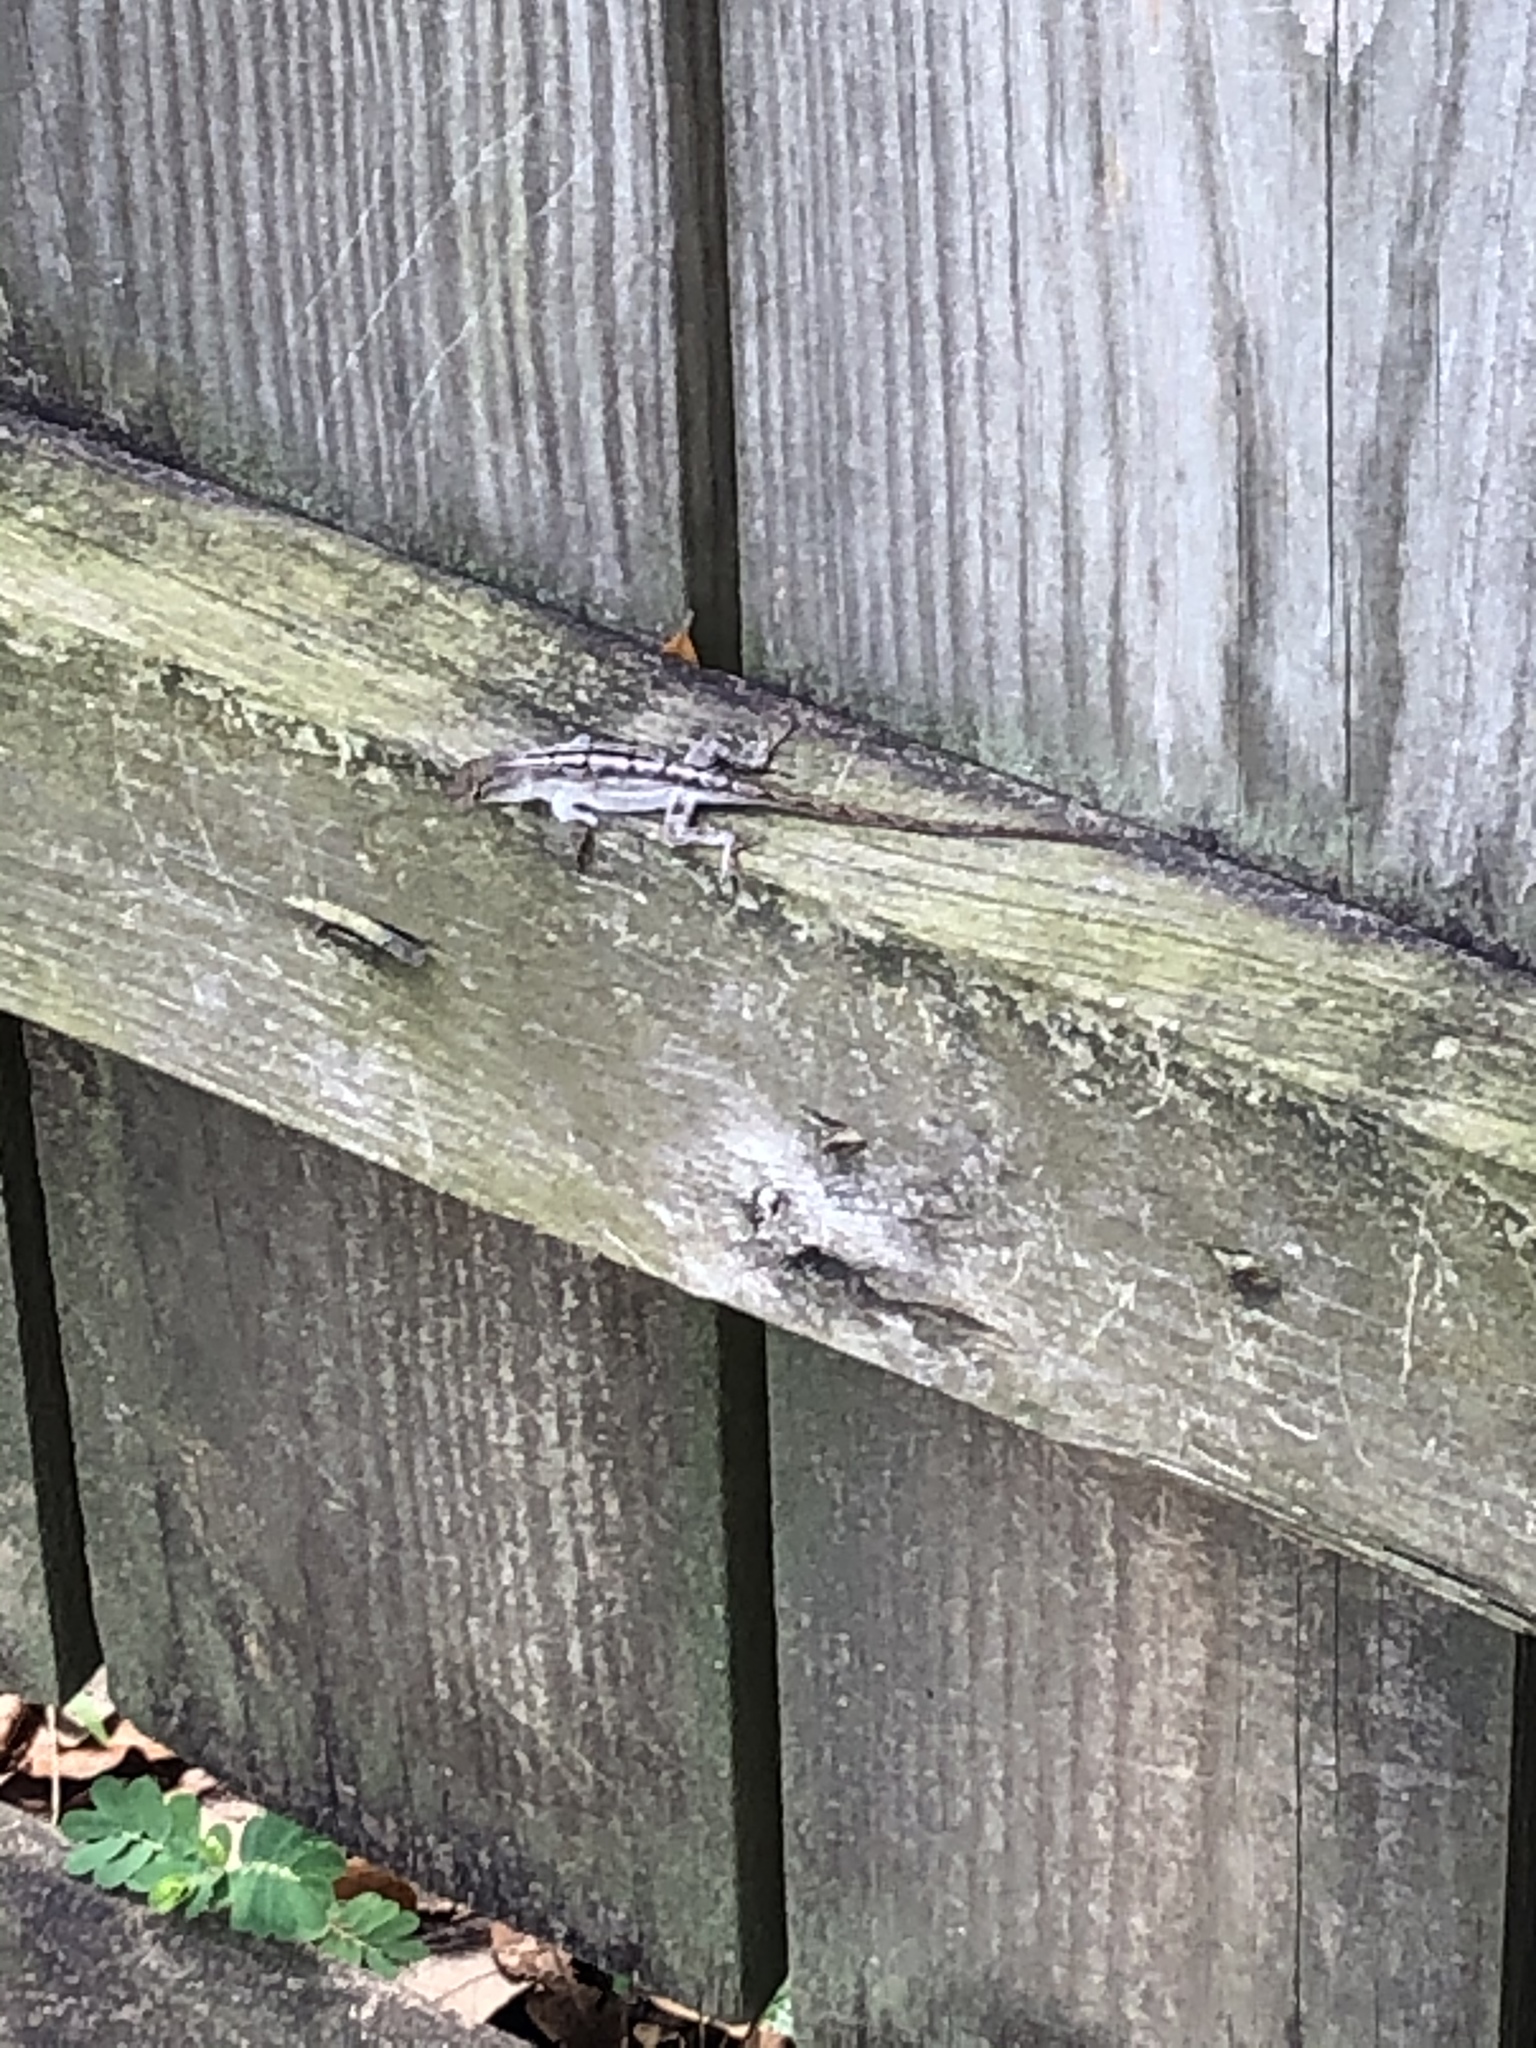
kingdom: Animalia
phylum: Chordata
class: Squamata
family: Dactyloidae
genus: Anolis
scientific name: Anolis sagrei
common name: Brown anole
